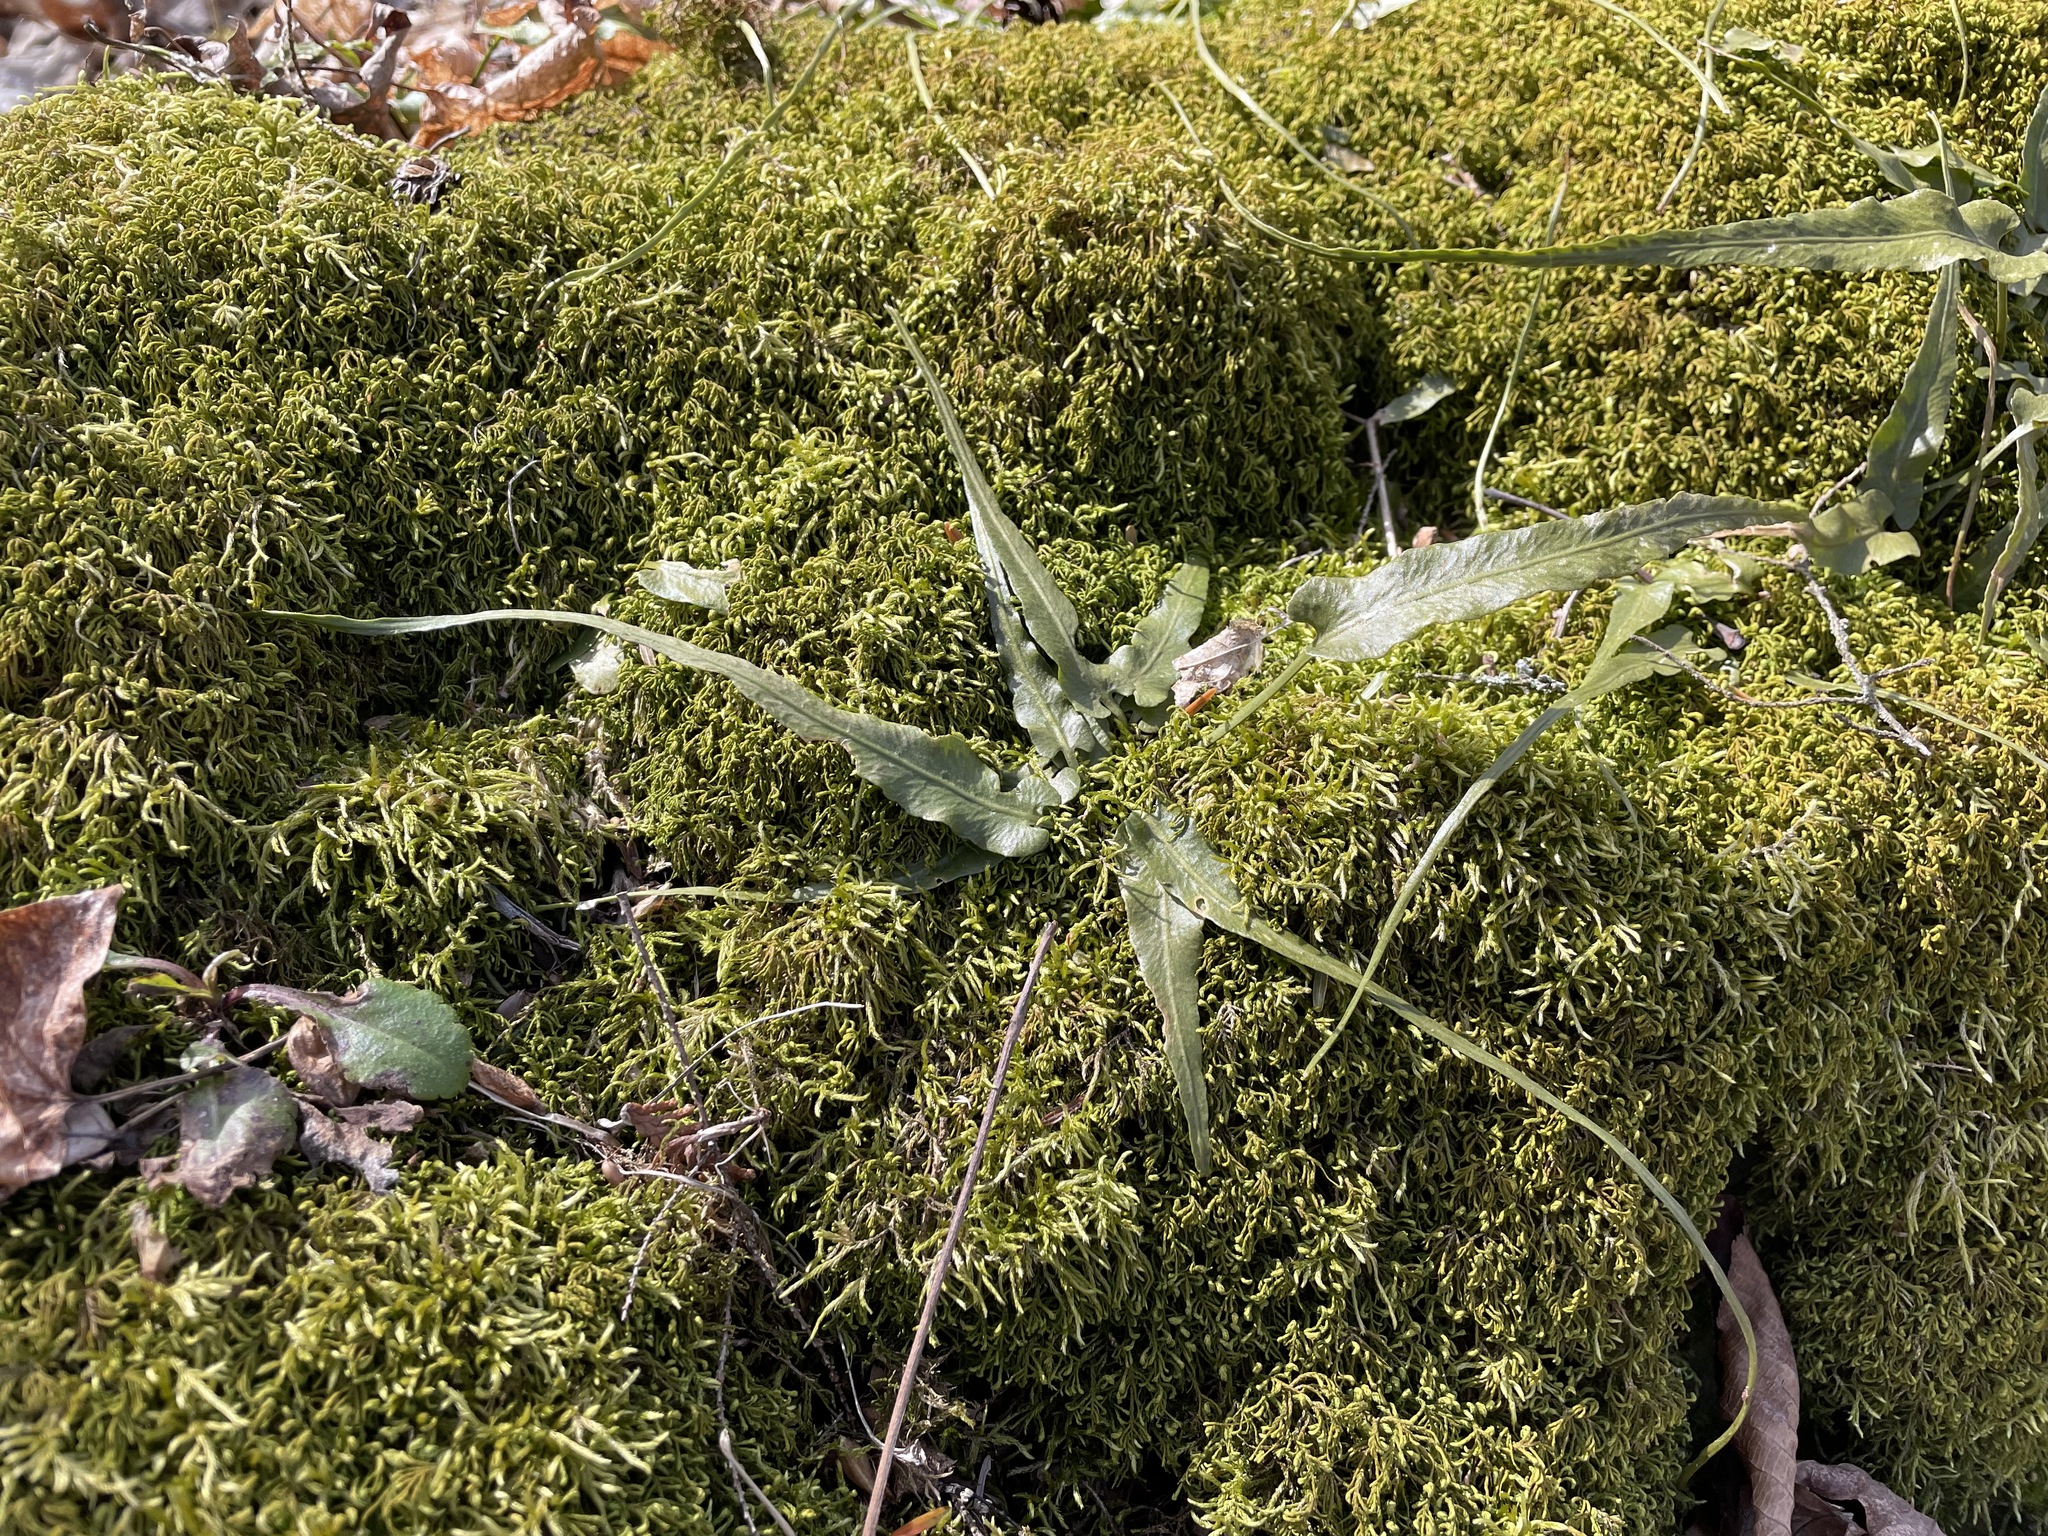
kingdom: Plantae
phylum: Tracheophyta
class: Polypodiopsida
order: Polypodiales
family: Aspleniaceae
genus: Asplenium
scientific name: Asplenium rhizophyllum
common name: Walking fern
